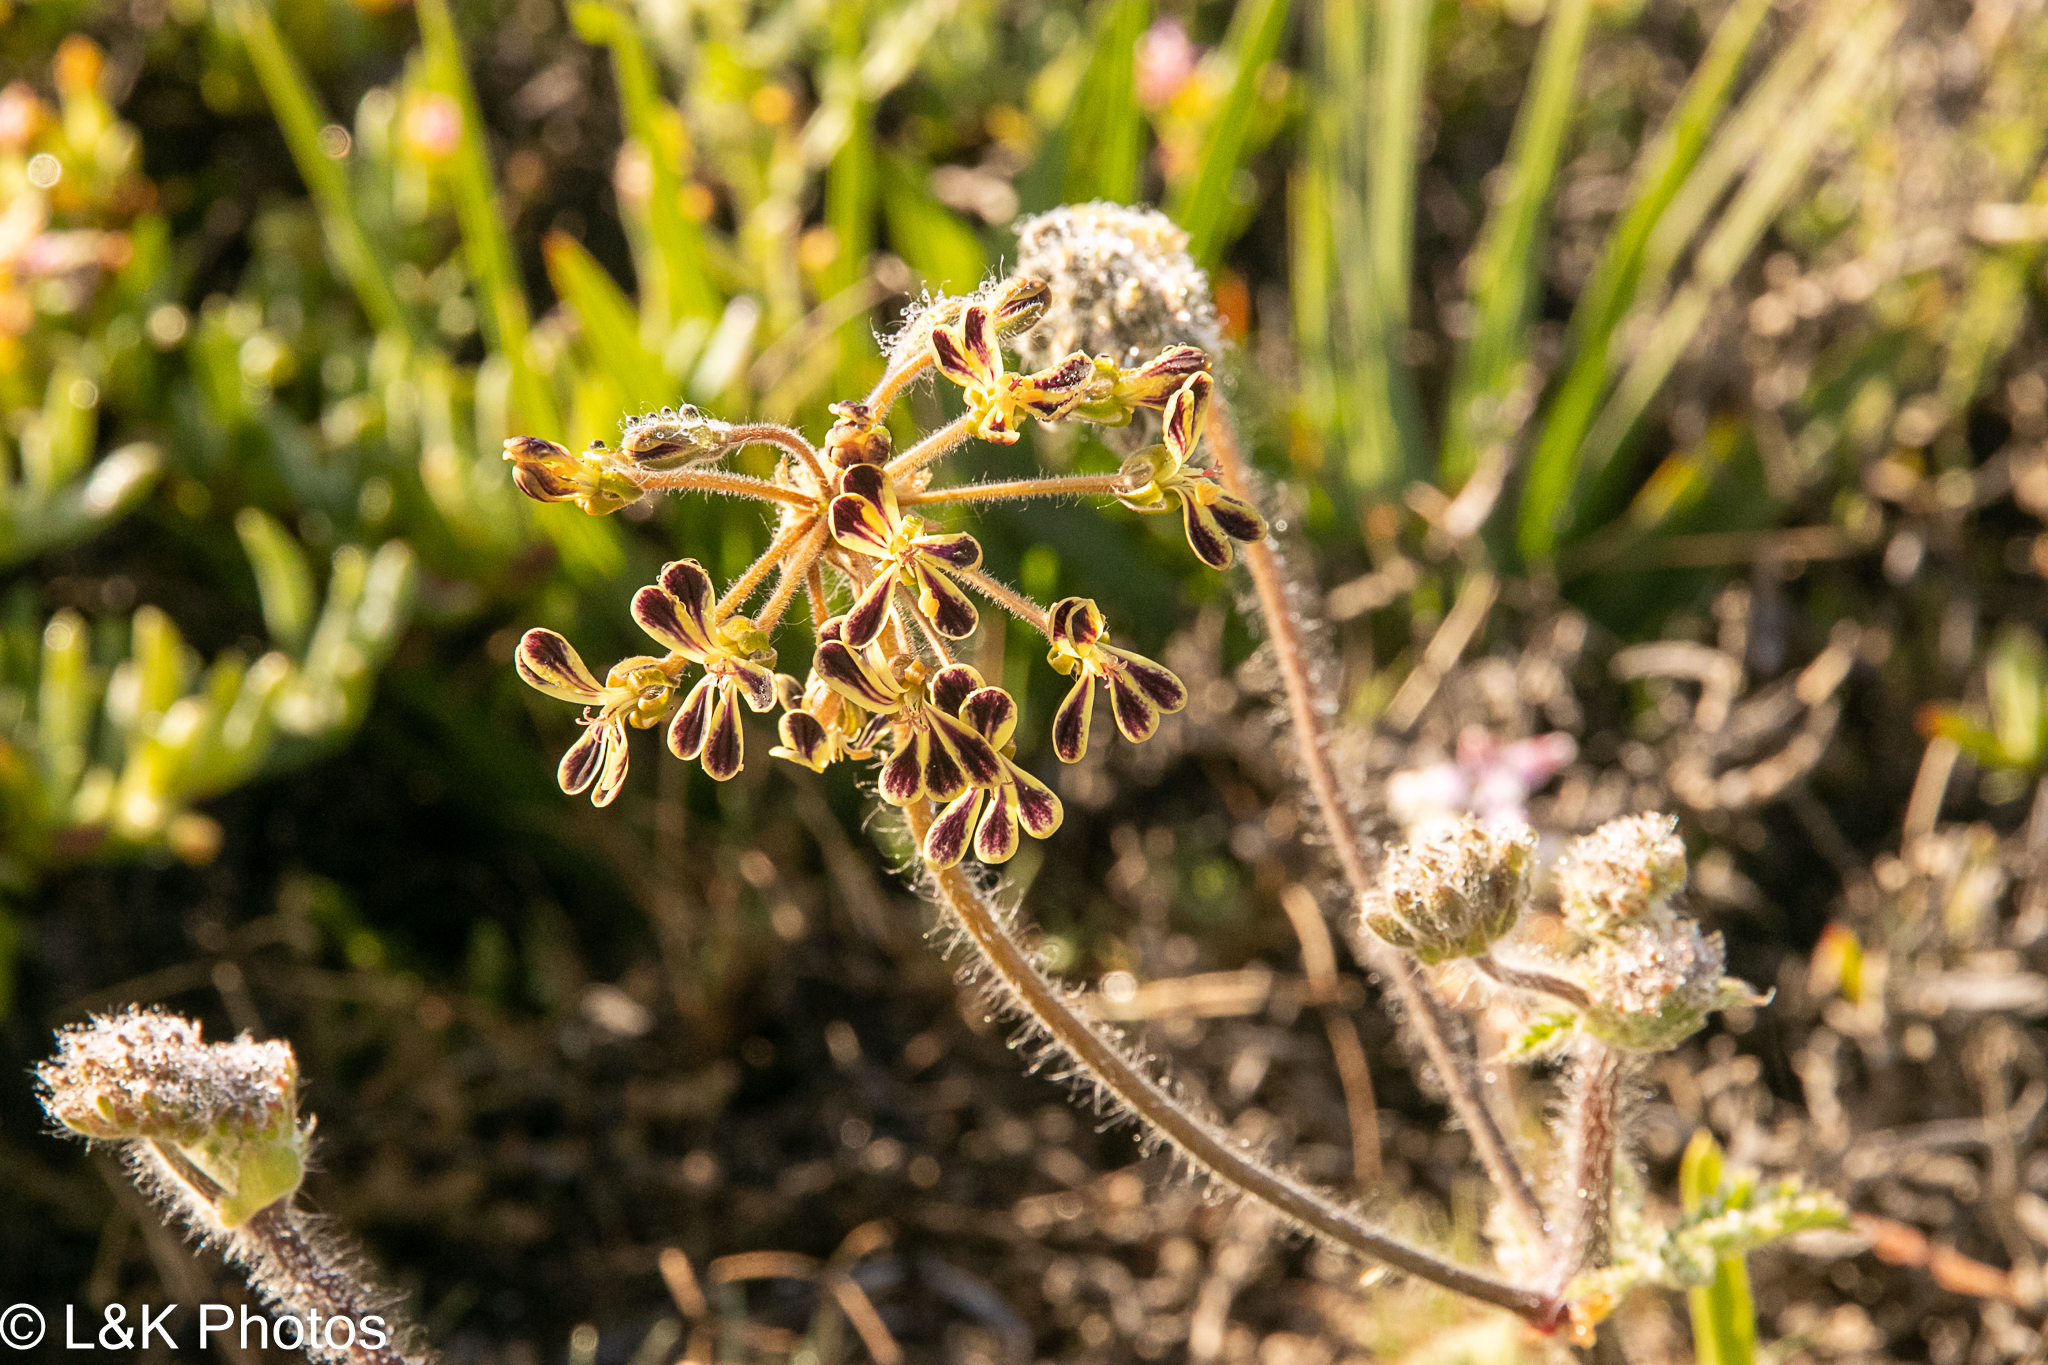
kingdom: Plantae
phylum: Tracheophyta
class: Magnoliopsida
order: Geraniales
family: Geraniaceae
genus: Pelargonium
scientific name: Pelargonium lobatum
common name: Vine-leaf pelargonium
